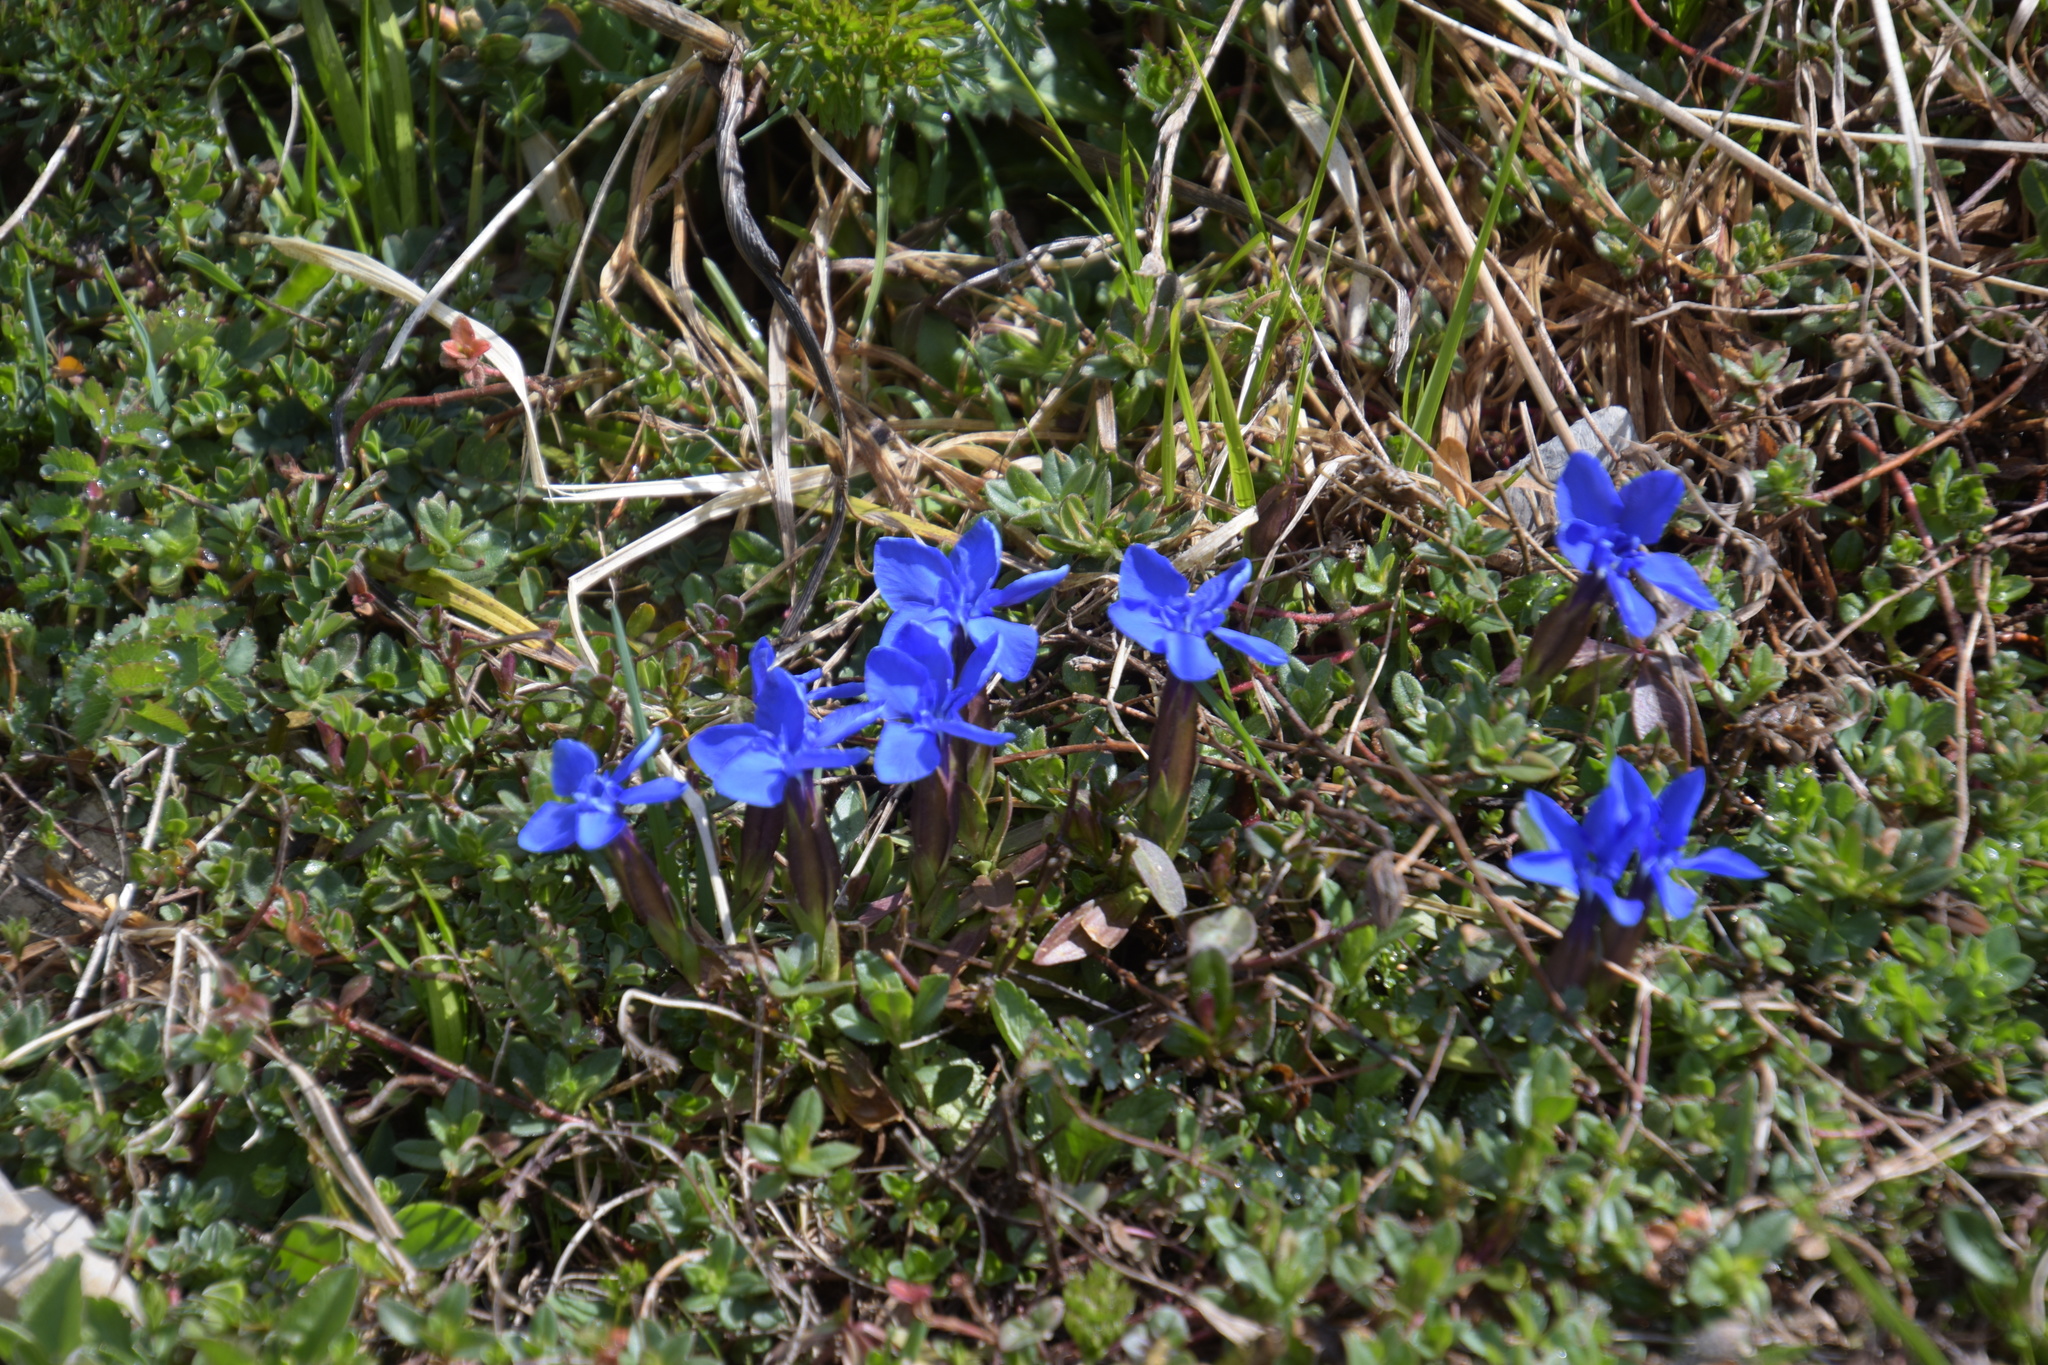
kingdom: Plantae
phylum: Tracheophyta
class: Magnoliopsida
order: Gentianales
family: Gentianaceae
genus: Gentiana
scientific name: Gentiana verna
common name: Spring gentian
